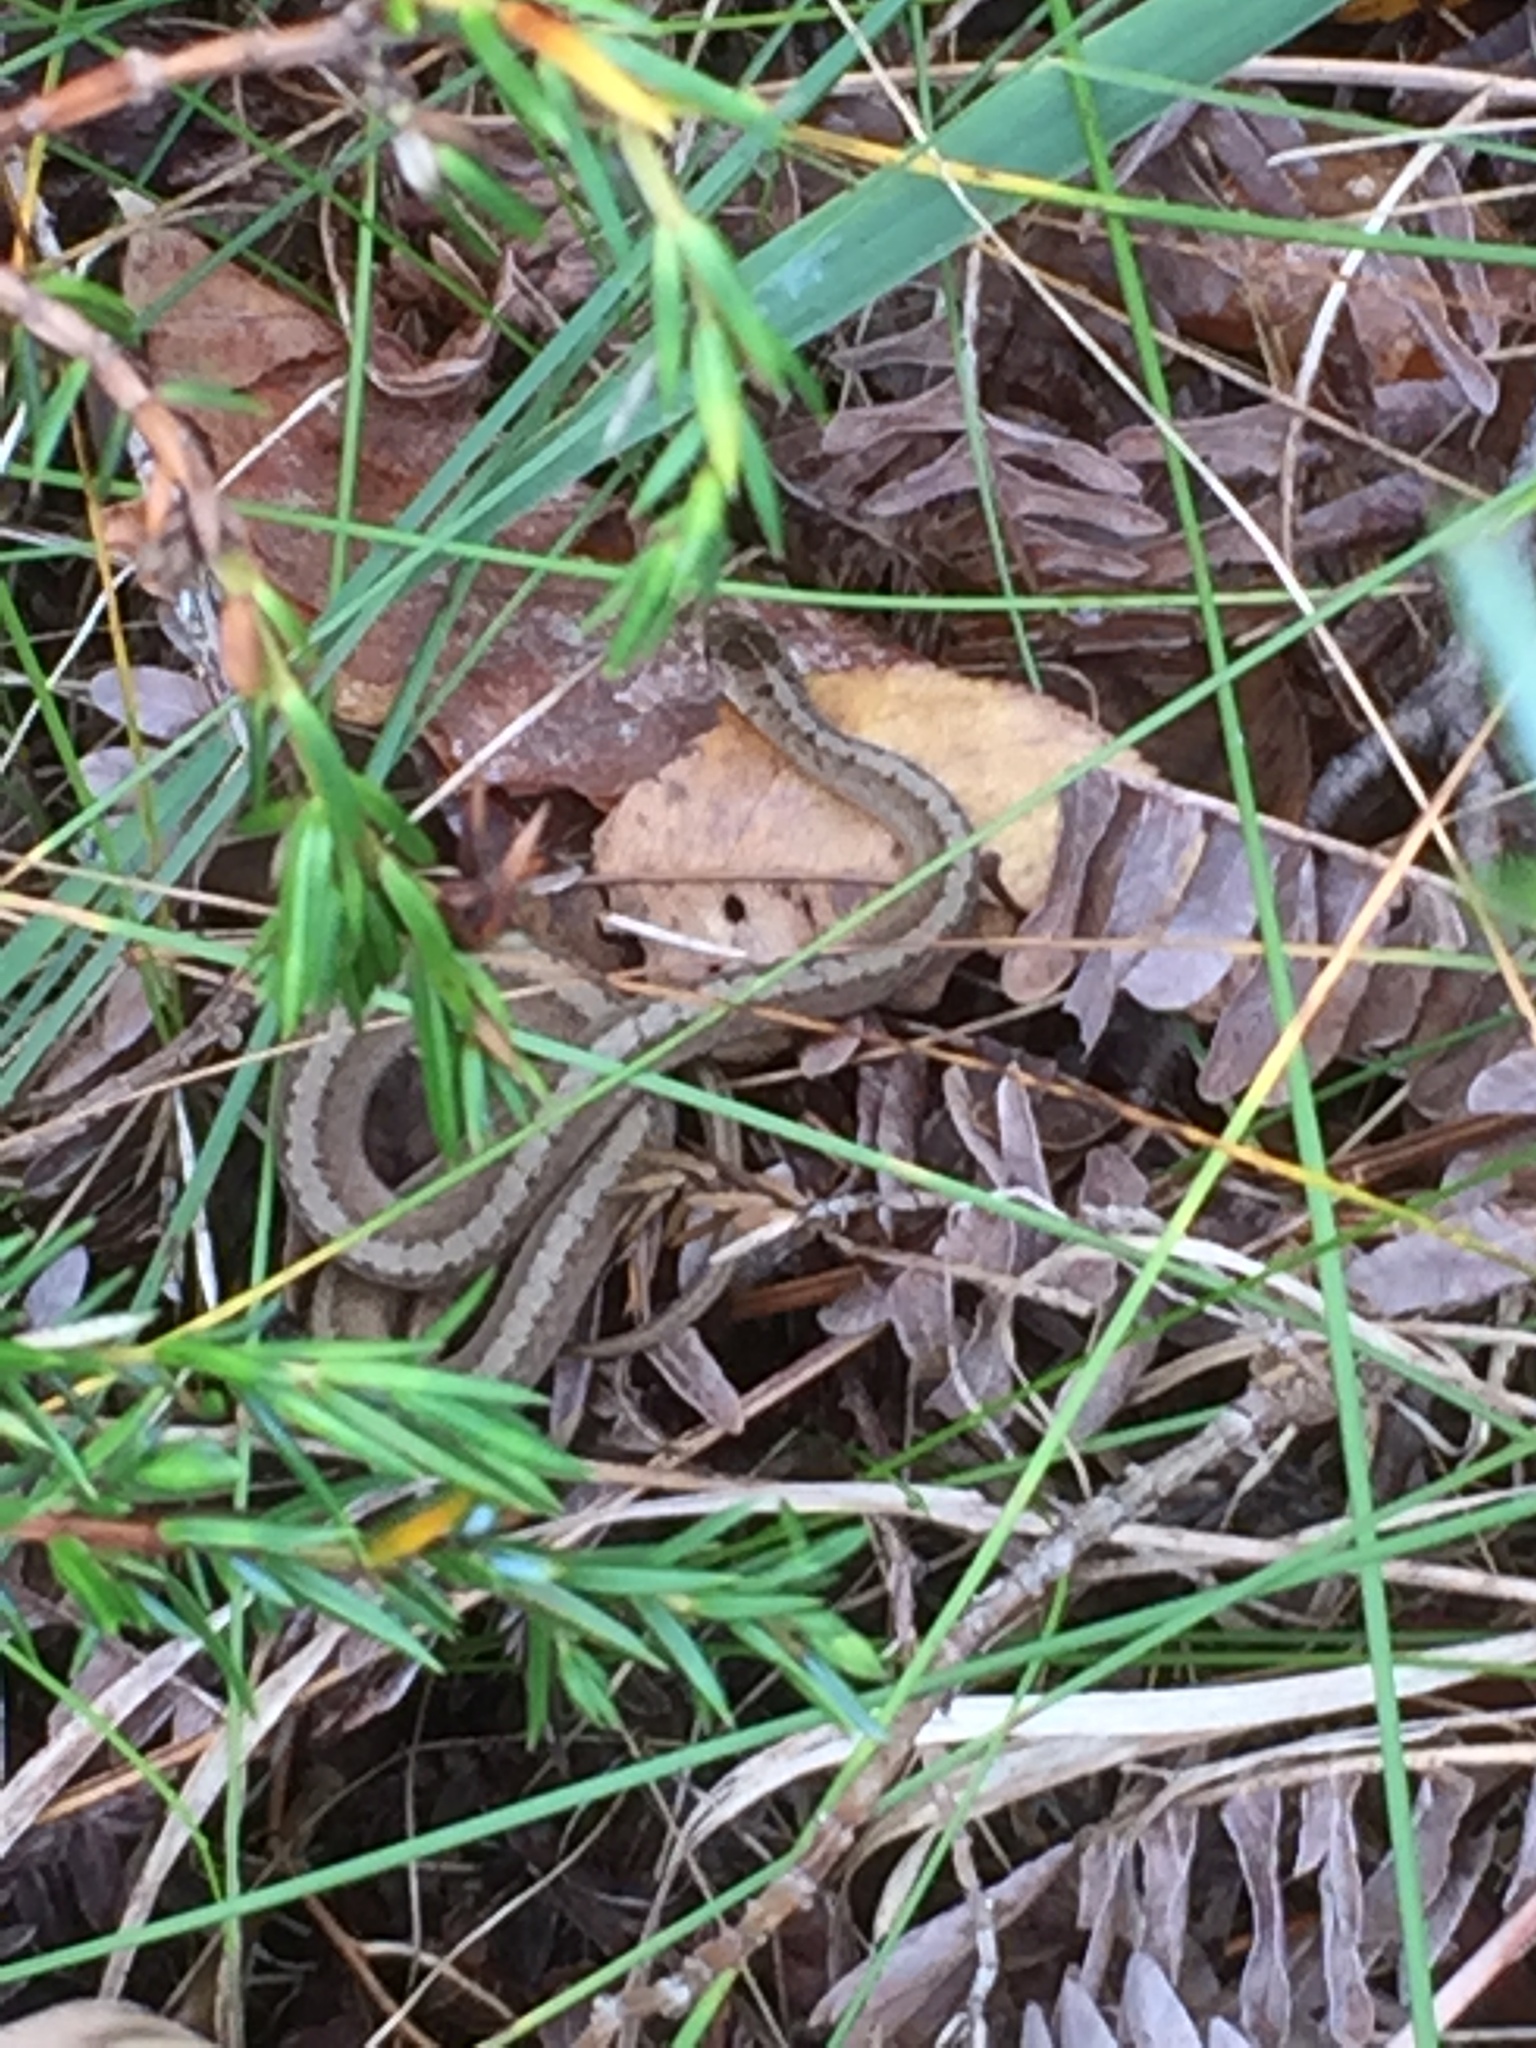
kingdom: Animalia
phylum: Chordata
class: Squamata
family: Colubridae
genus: Storeria
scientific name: Storeria dekayi
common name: (dekay’s) brown snake
